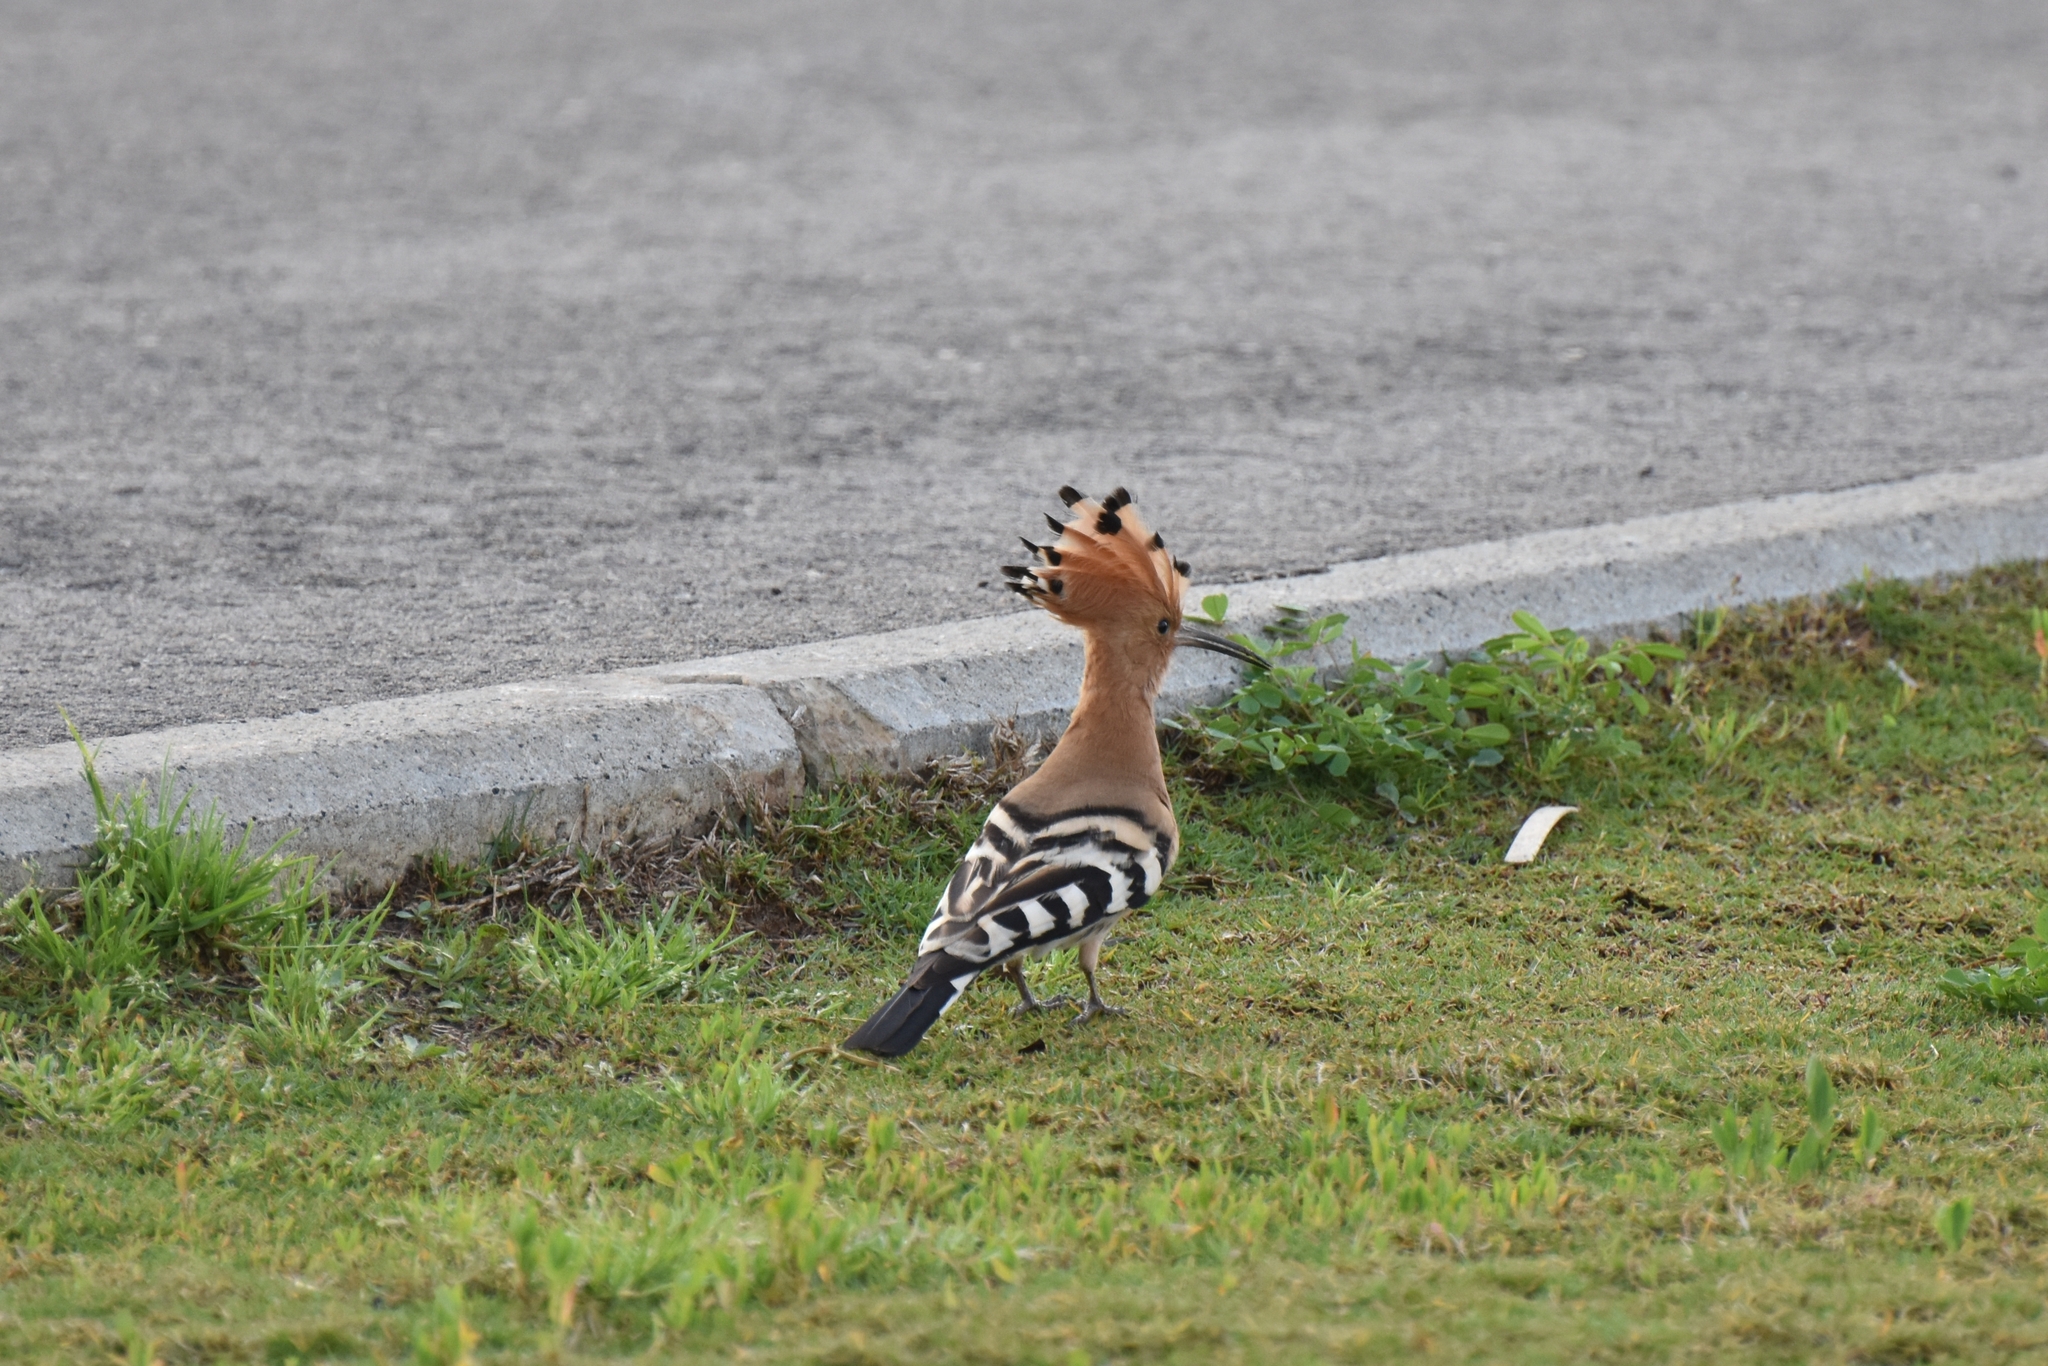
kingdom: Animalia
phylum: Chordata
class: Aves
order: Bucerotiformes
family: Upupidae
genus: Upupa
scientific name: Upupa epops
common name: Eurasian hoopoe
